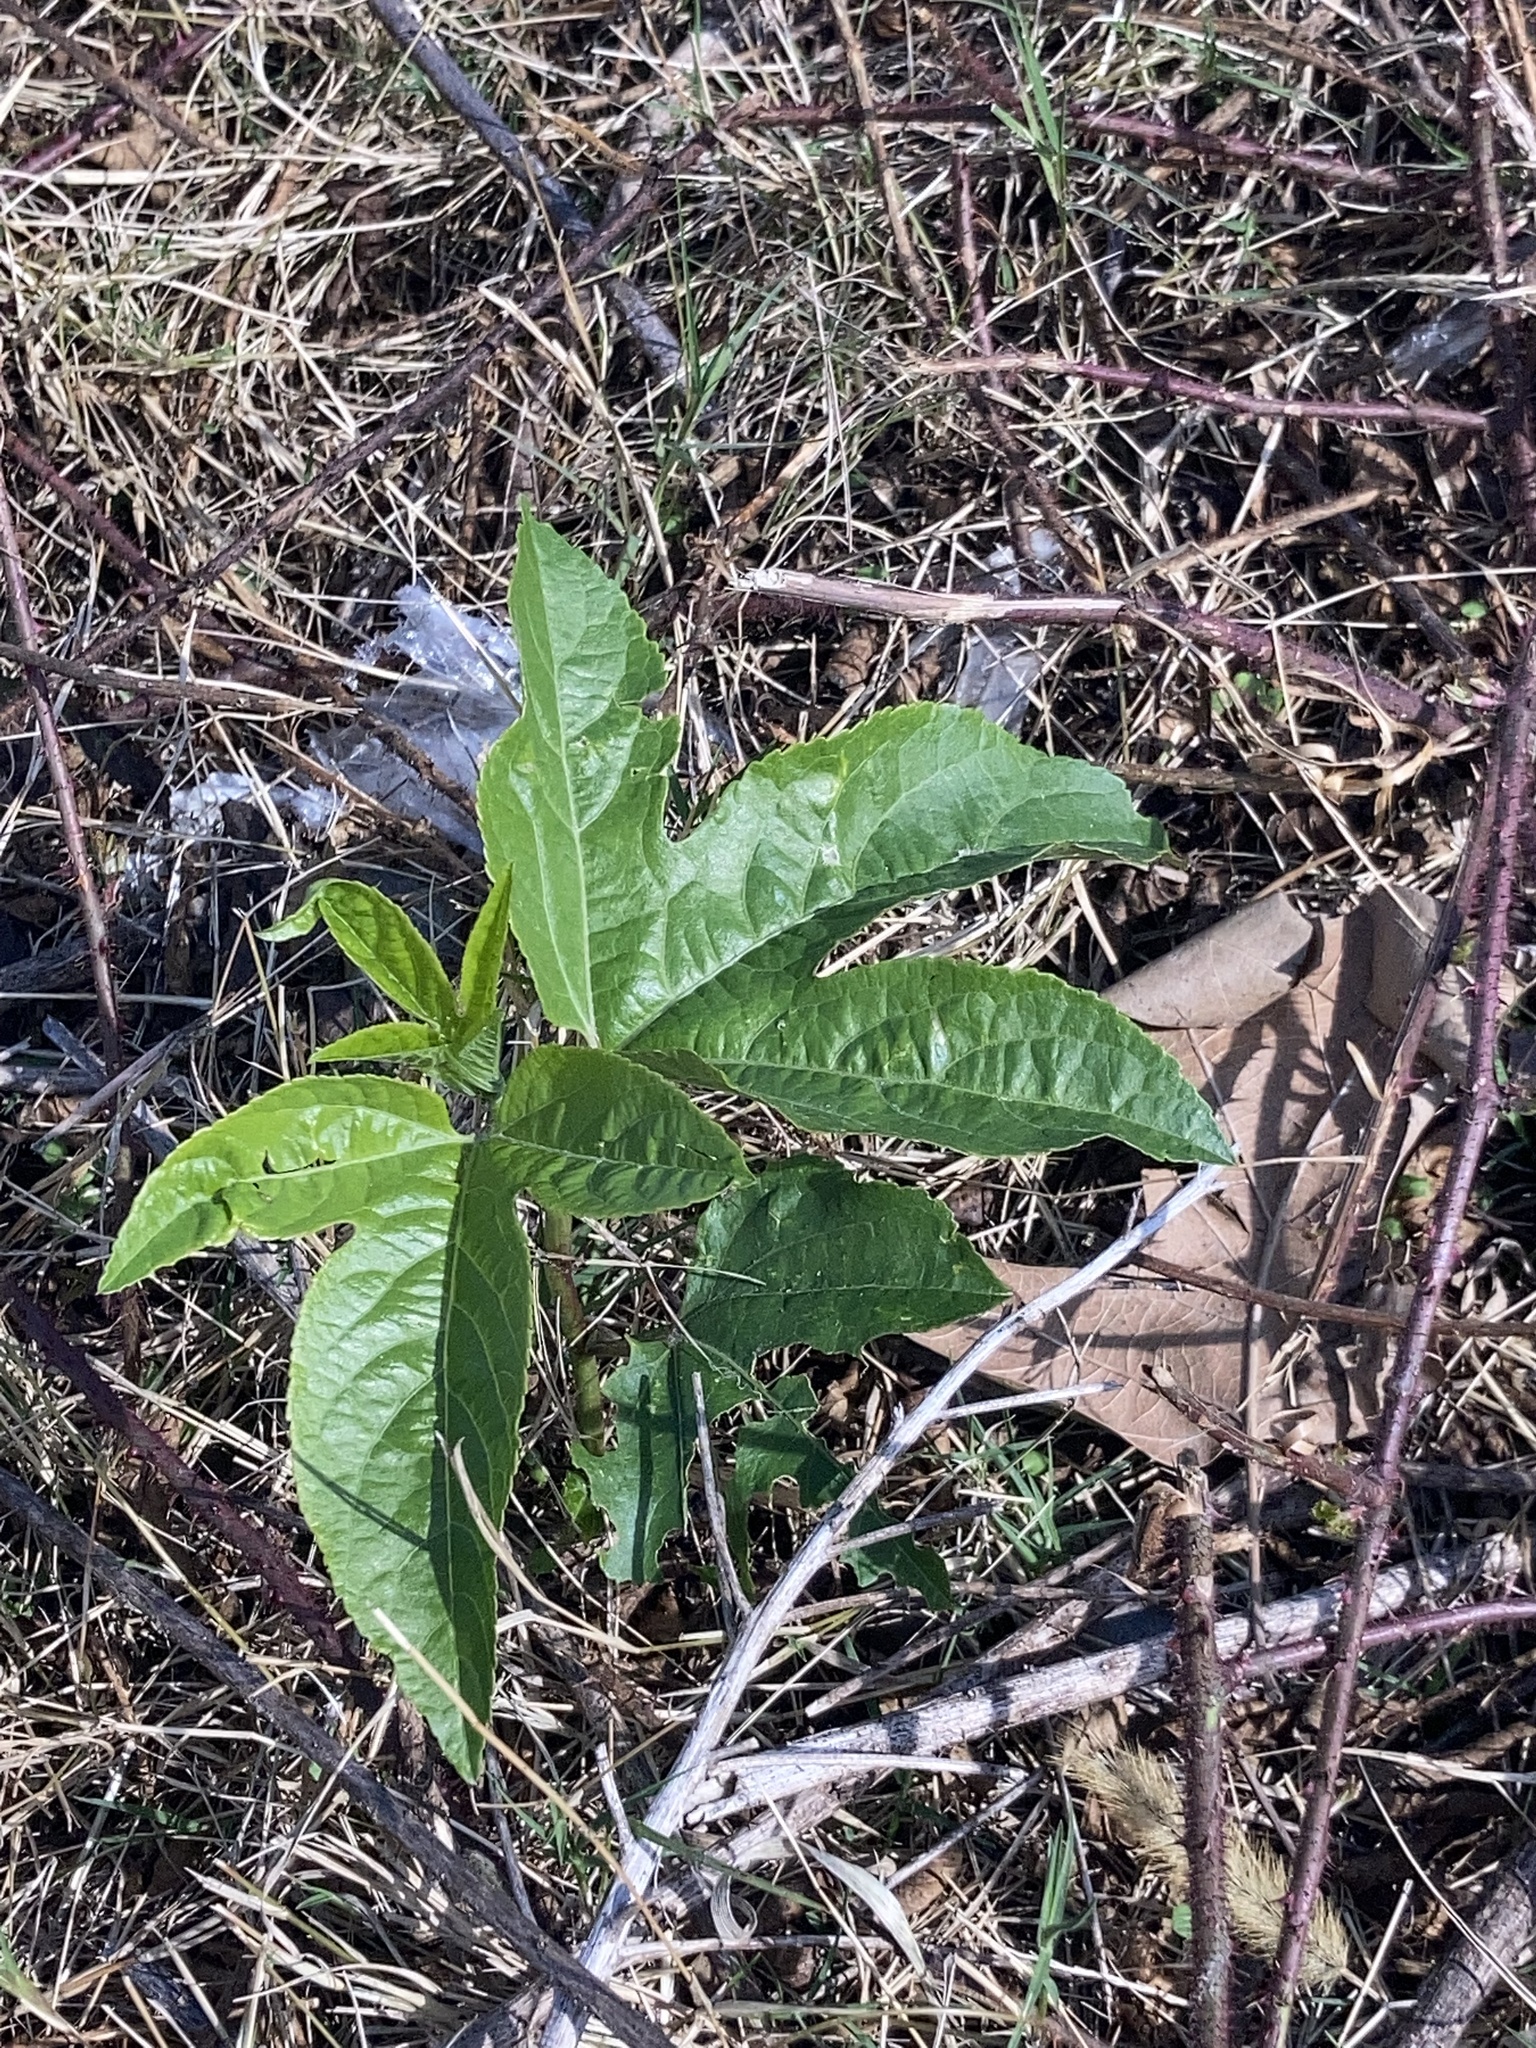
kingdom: Plantae
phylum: Tracheophyta
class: Magnoliopsida
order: Malpighiales
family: Passifloraceae
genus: Passiflora
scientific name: Passiflora incarnata
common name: Apricot-vine
